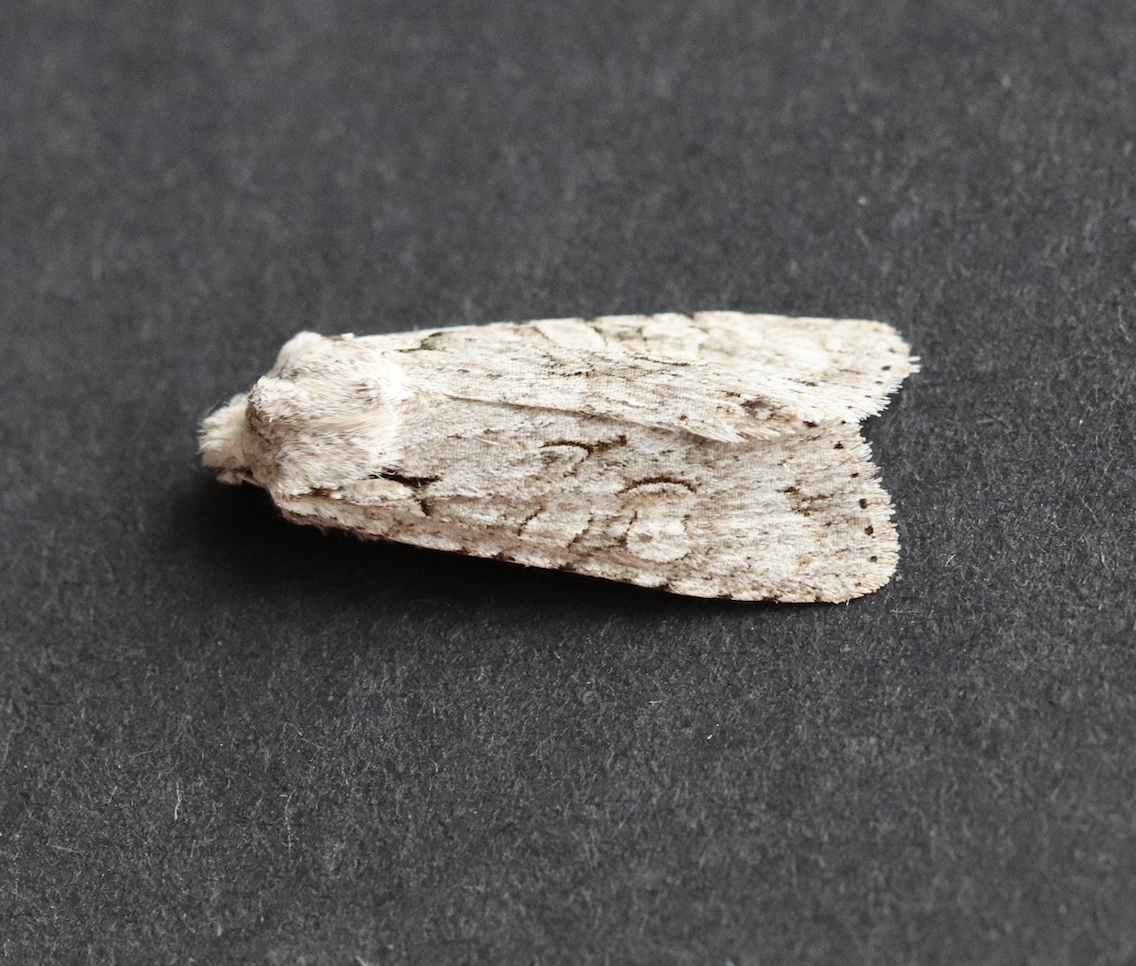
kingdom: Animalia
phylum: Arthropoda
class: Insecta
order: Lepidoptera
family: Noctuidae
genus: Lithophane
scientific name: Lithophane ornitopus
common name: Grey shoulder-knot
